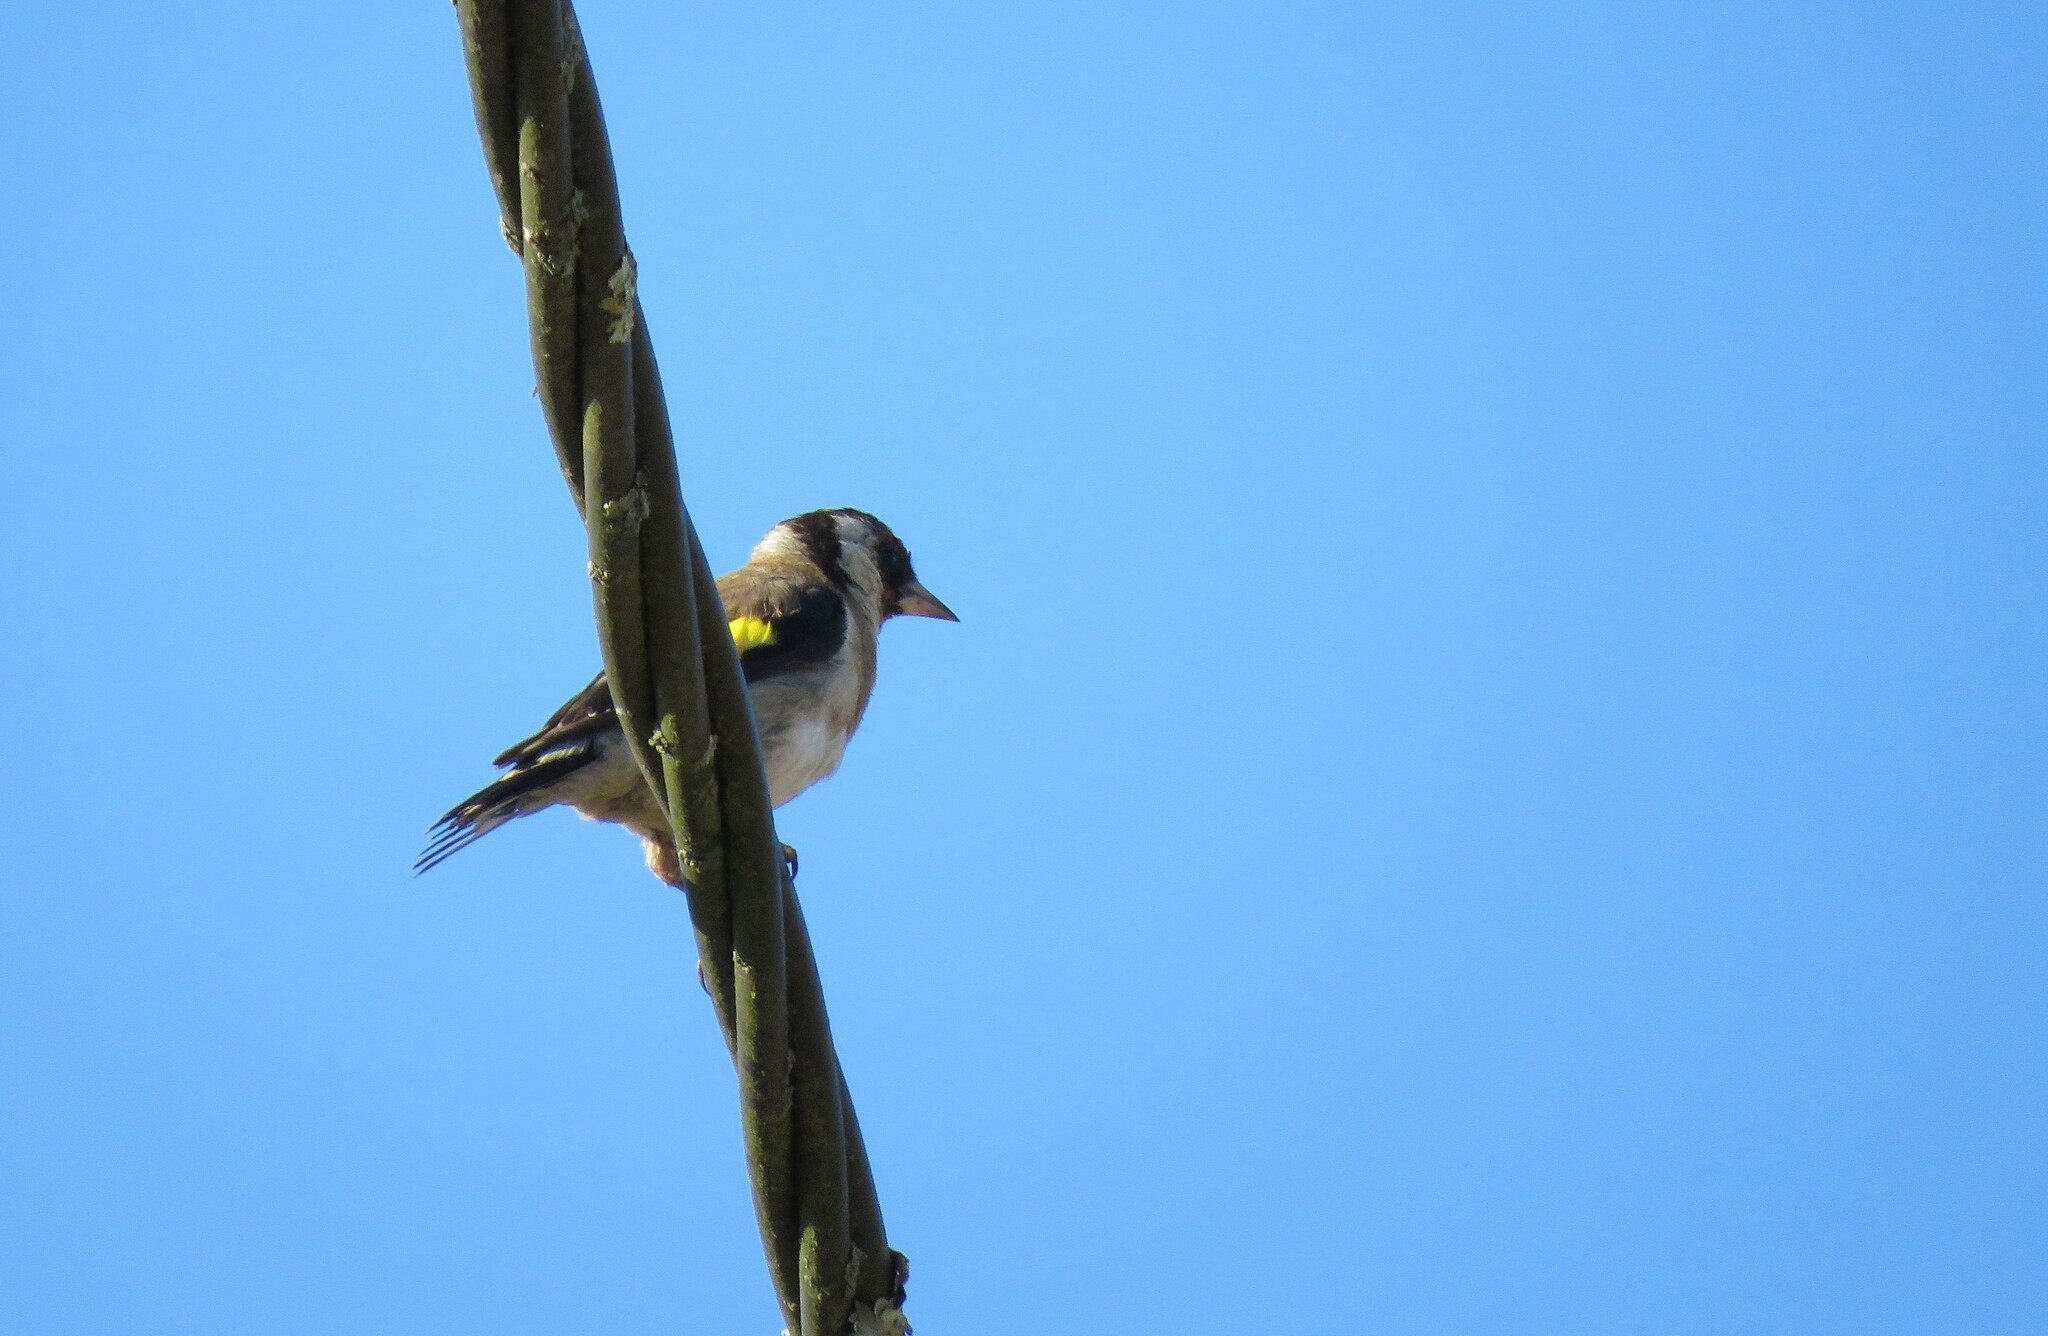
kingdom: Animalia
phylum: Chordata
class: Aves
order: Passeriformes
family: Fringillidae
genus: Carduelis
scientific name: Carduelis carduelis
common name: European goldfinch
